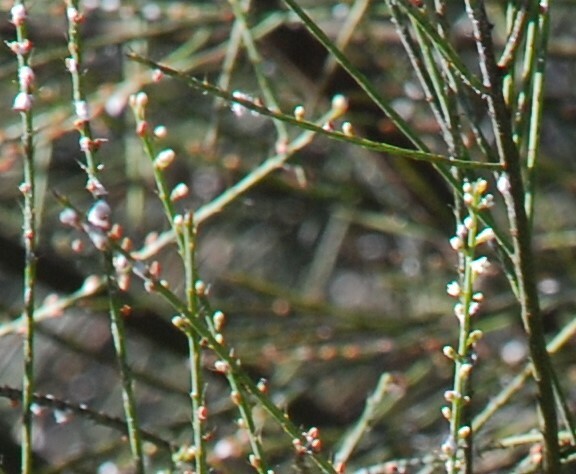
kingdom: Plantae
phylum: Tracheophyta
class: Magnoliopsida
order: Santalales
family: Amphorogynaceae
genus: Leptomeria
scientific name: Leptomeria acida
